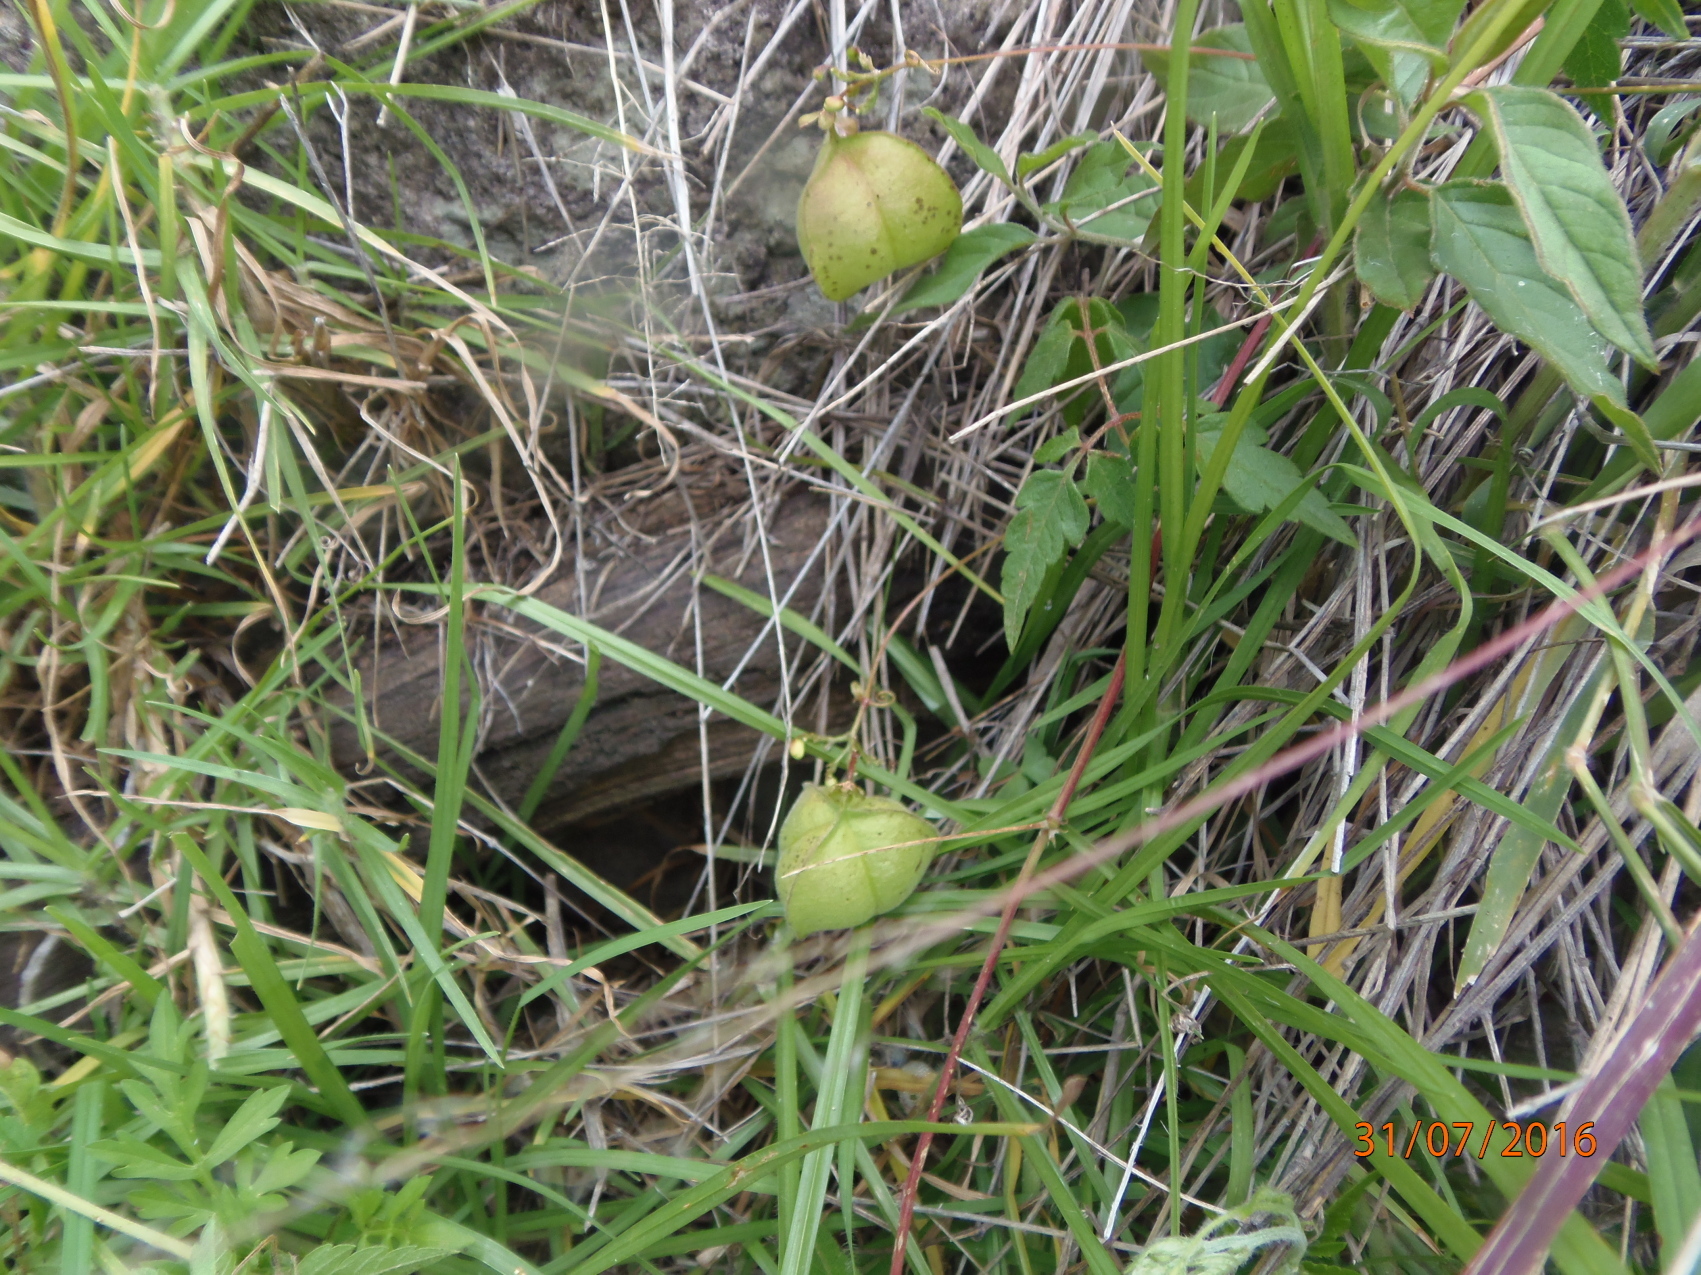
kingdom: Plantae
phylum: Tracheophyta
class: Magnoliopsida
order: Sapindales
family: Sapindaceae
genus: Cardiospermum
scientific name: Cardiospermum halicacabum
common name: Balloon vine
